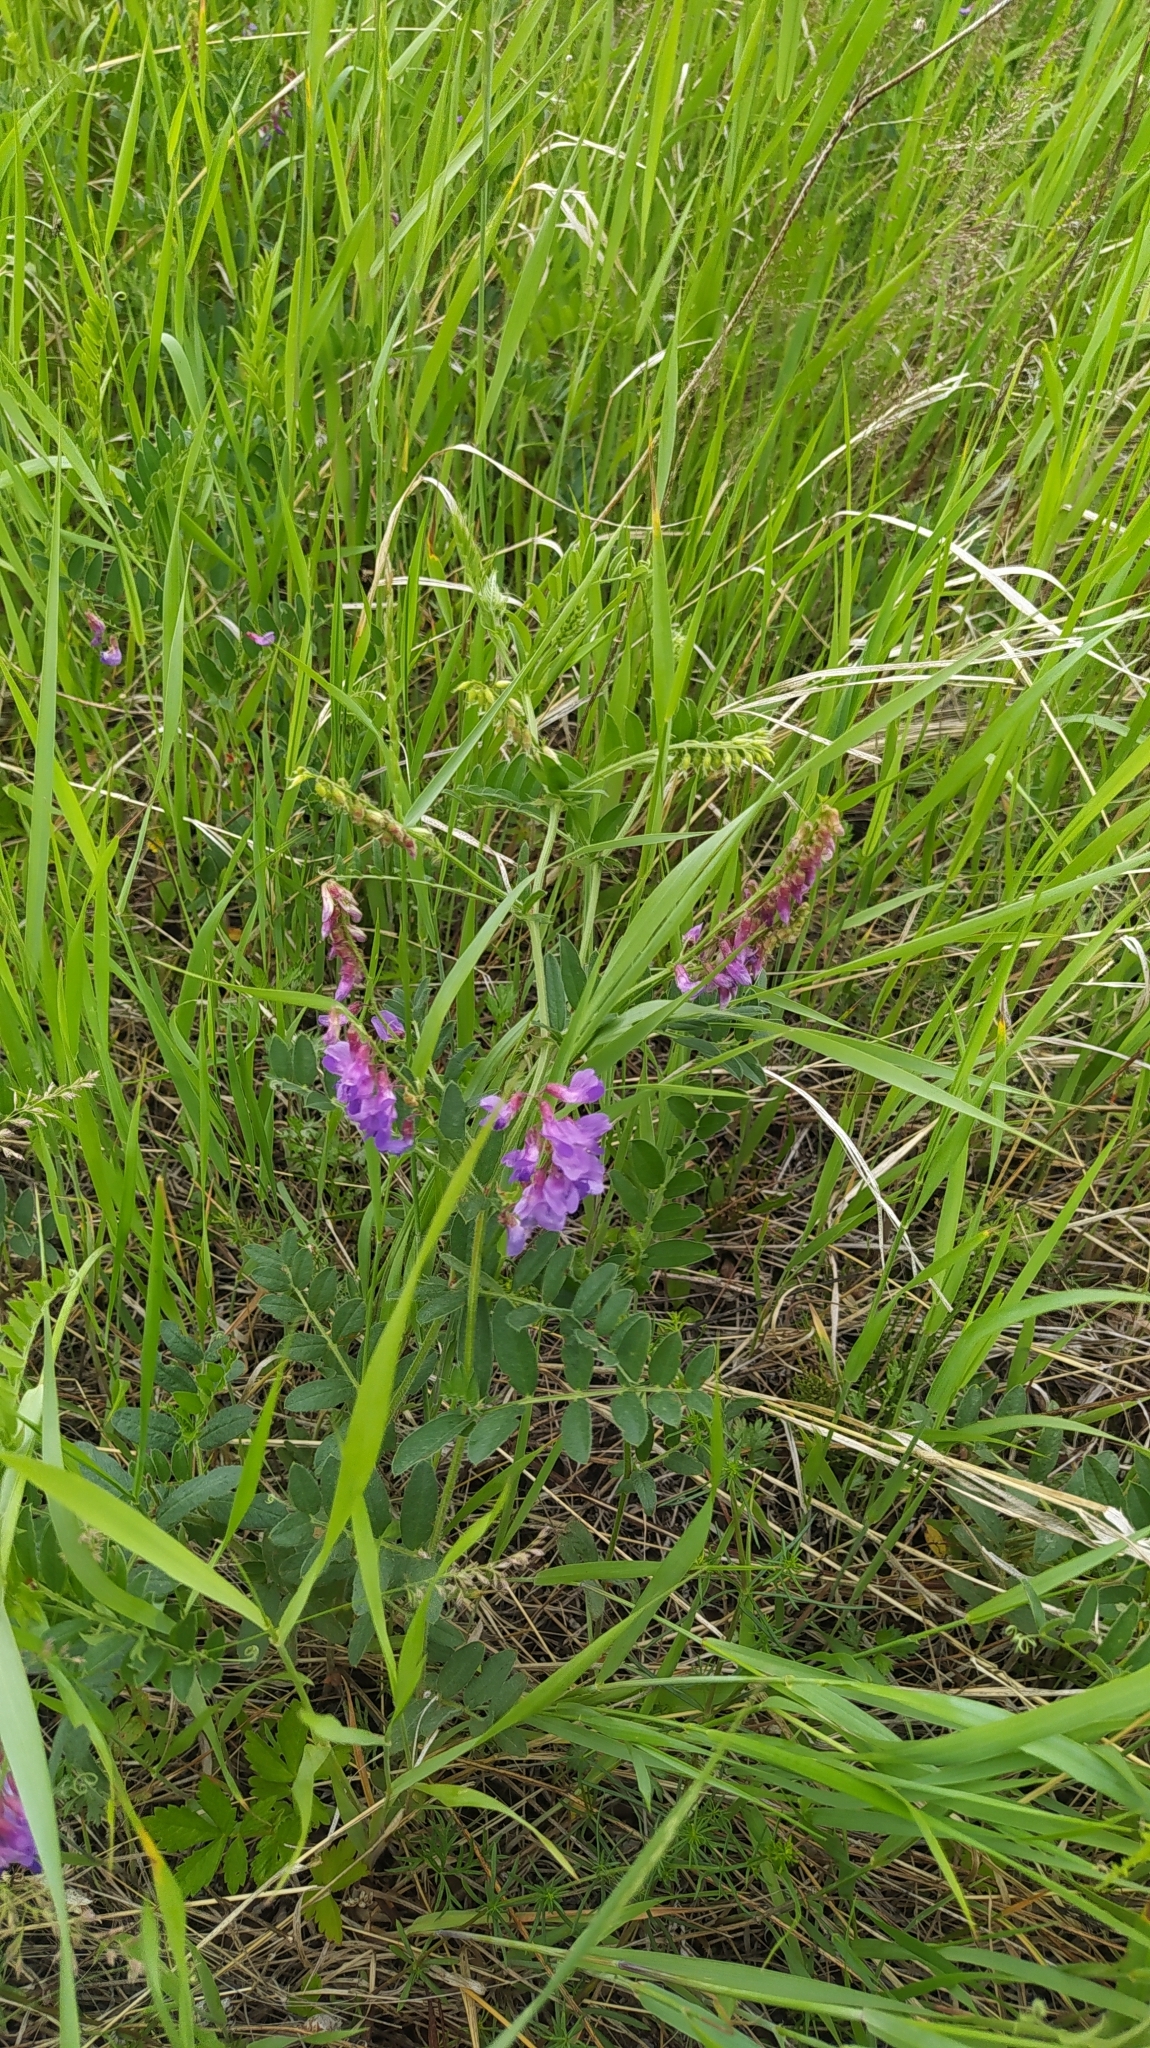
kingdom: Plantae
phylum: Tracheophyta
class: Magnoliopsida
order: Fabales
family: Fabaceae
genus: Vicia
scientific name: Vicia amoena
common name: Cheder ebs
